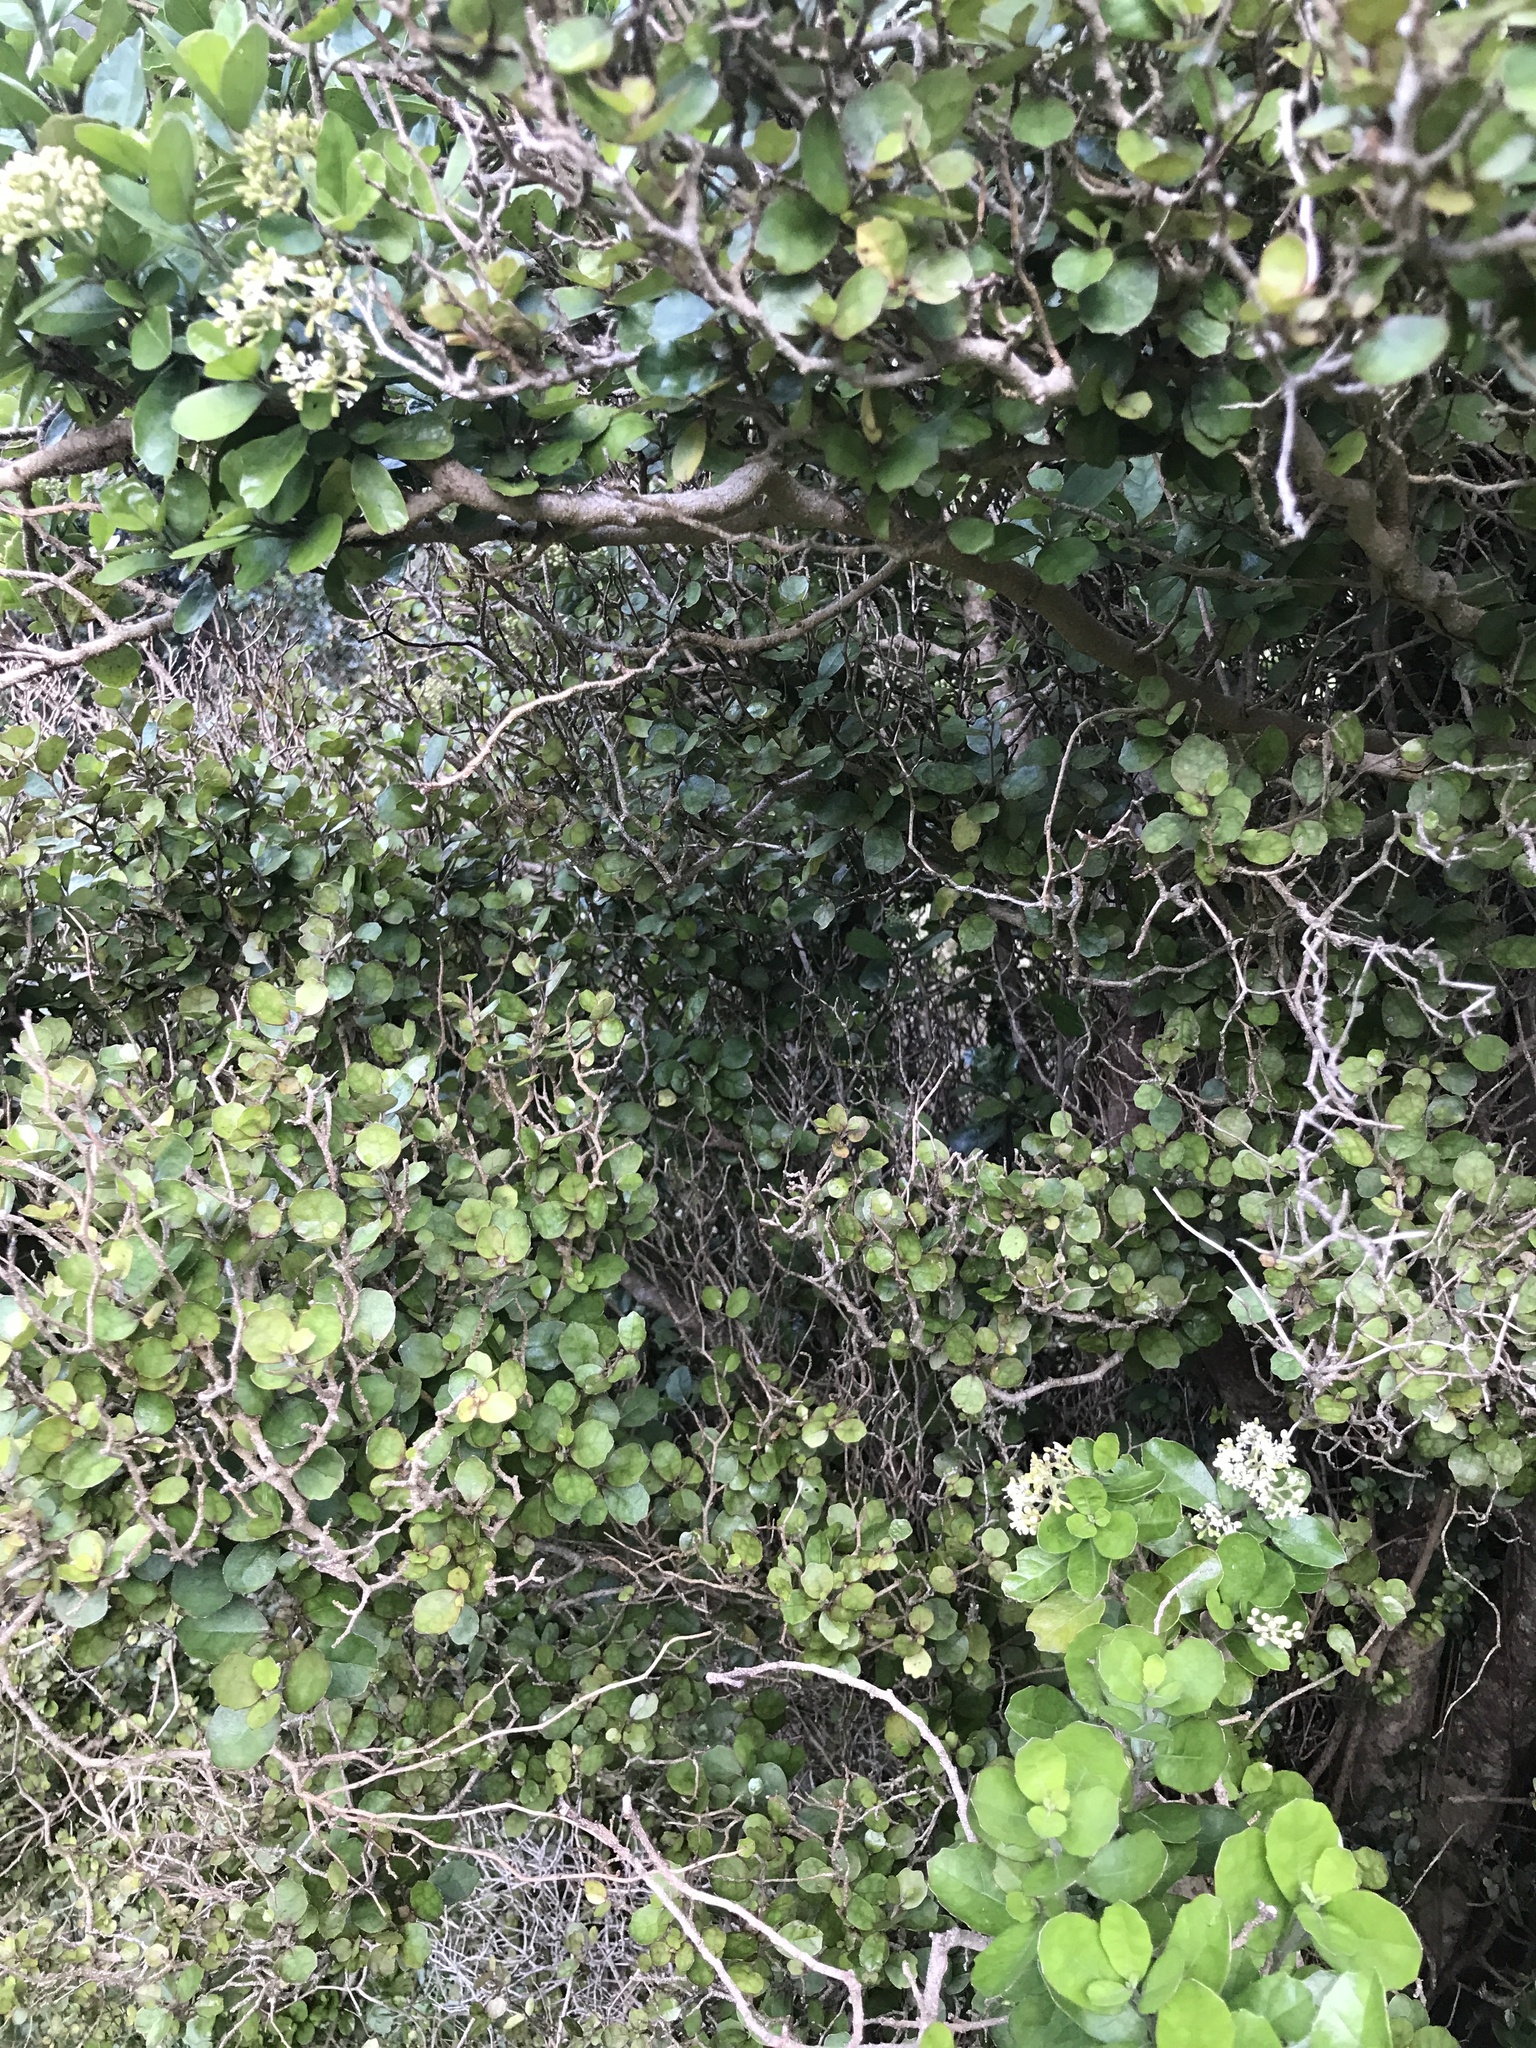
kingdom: Plantae
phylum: Tracheophyta
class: Magnoliopsida
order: Apiales
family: Pennantiaceae
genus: Pennantia
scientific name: Pennantia corymbosa
